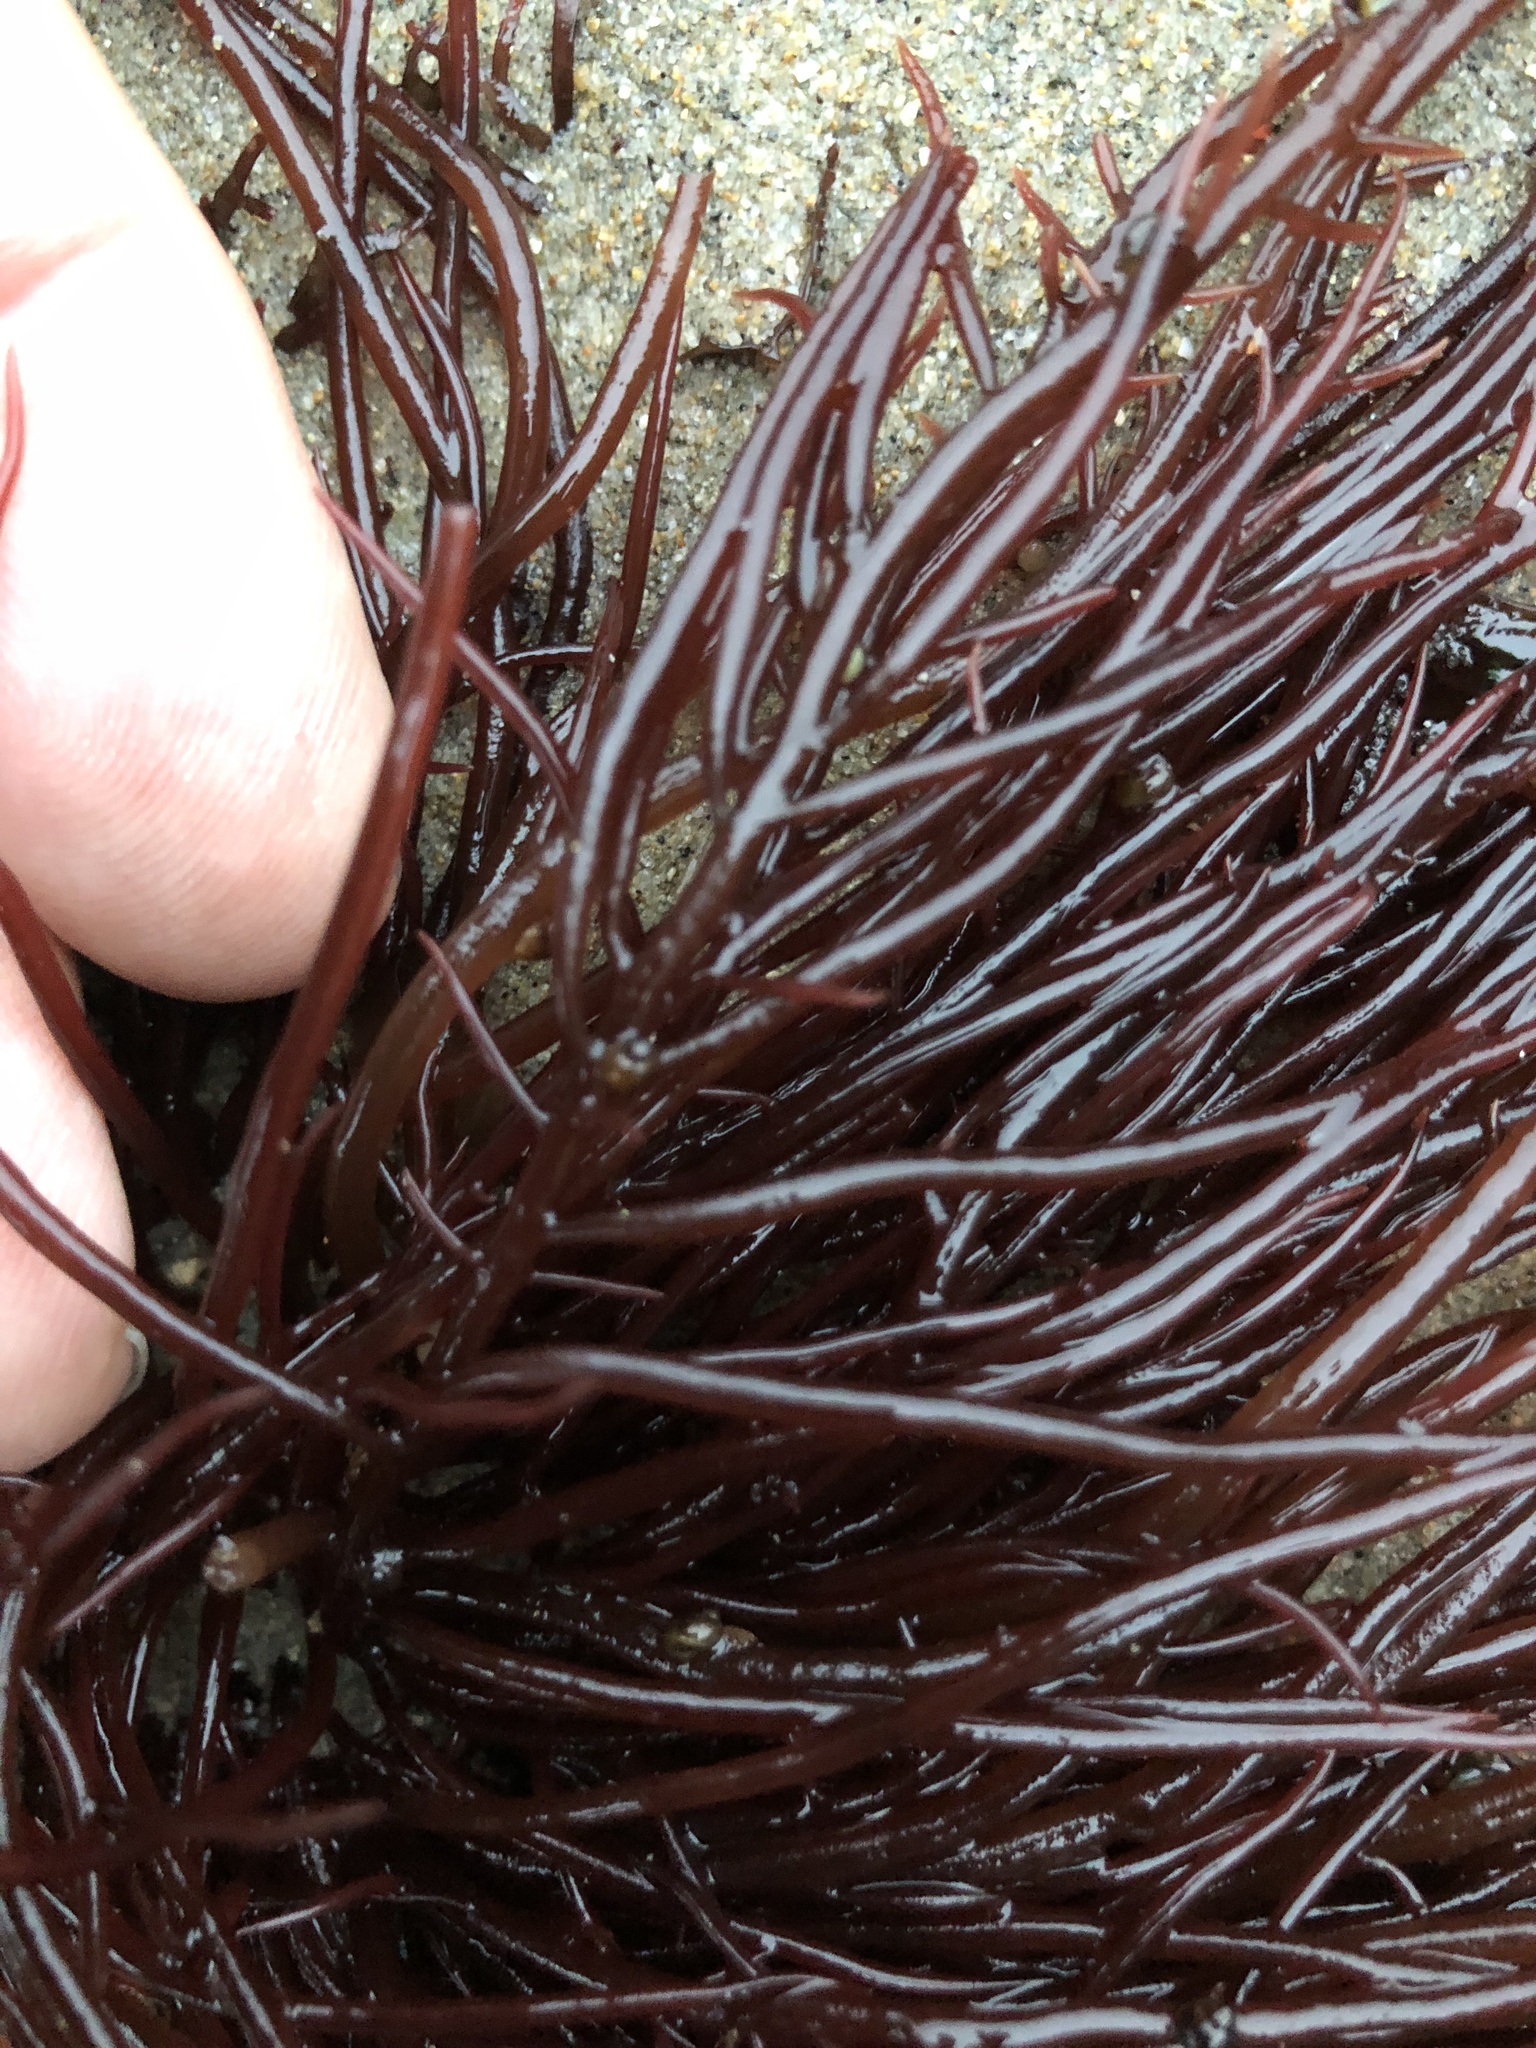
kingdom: Plantae
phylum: Rhodophyta
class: Florideophyceae
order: Gigartinales
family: Solieriaceae
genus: Sarcodiotheca
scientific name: Sarcodiotheca gaudichaudii
